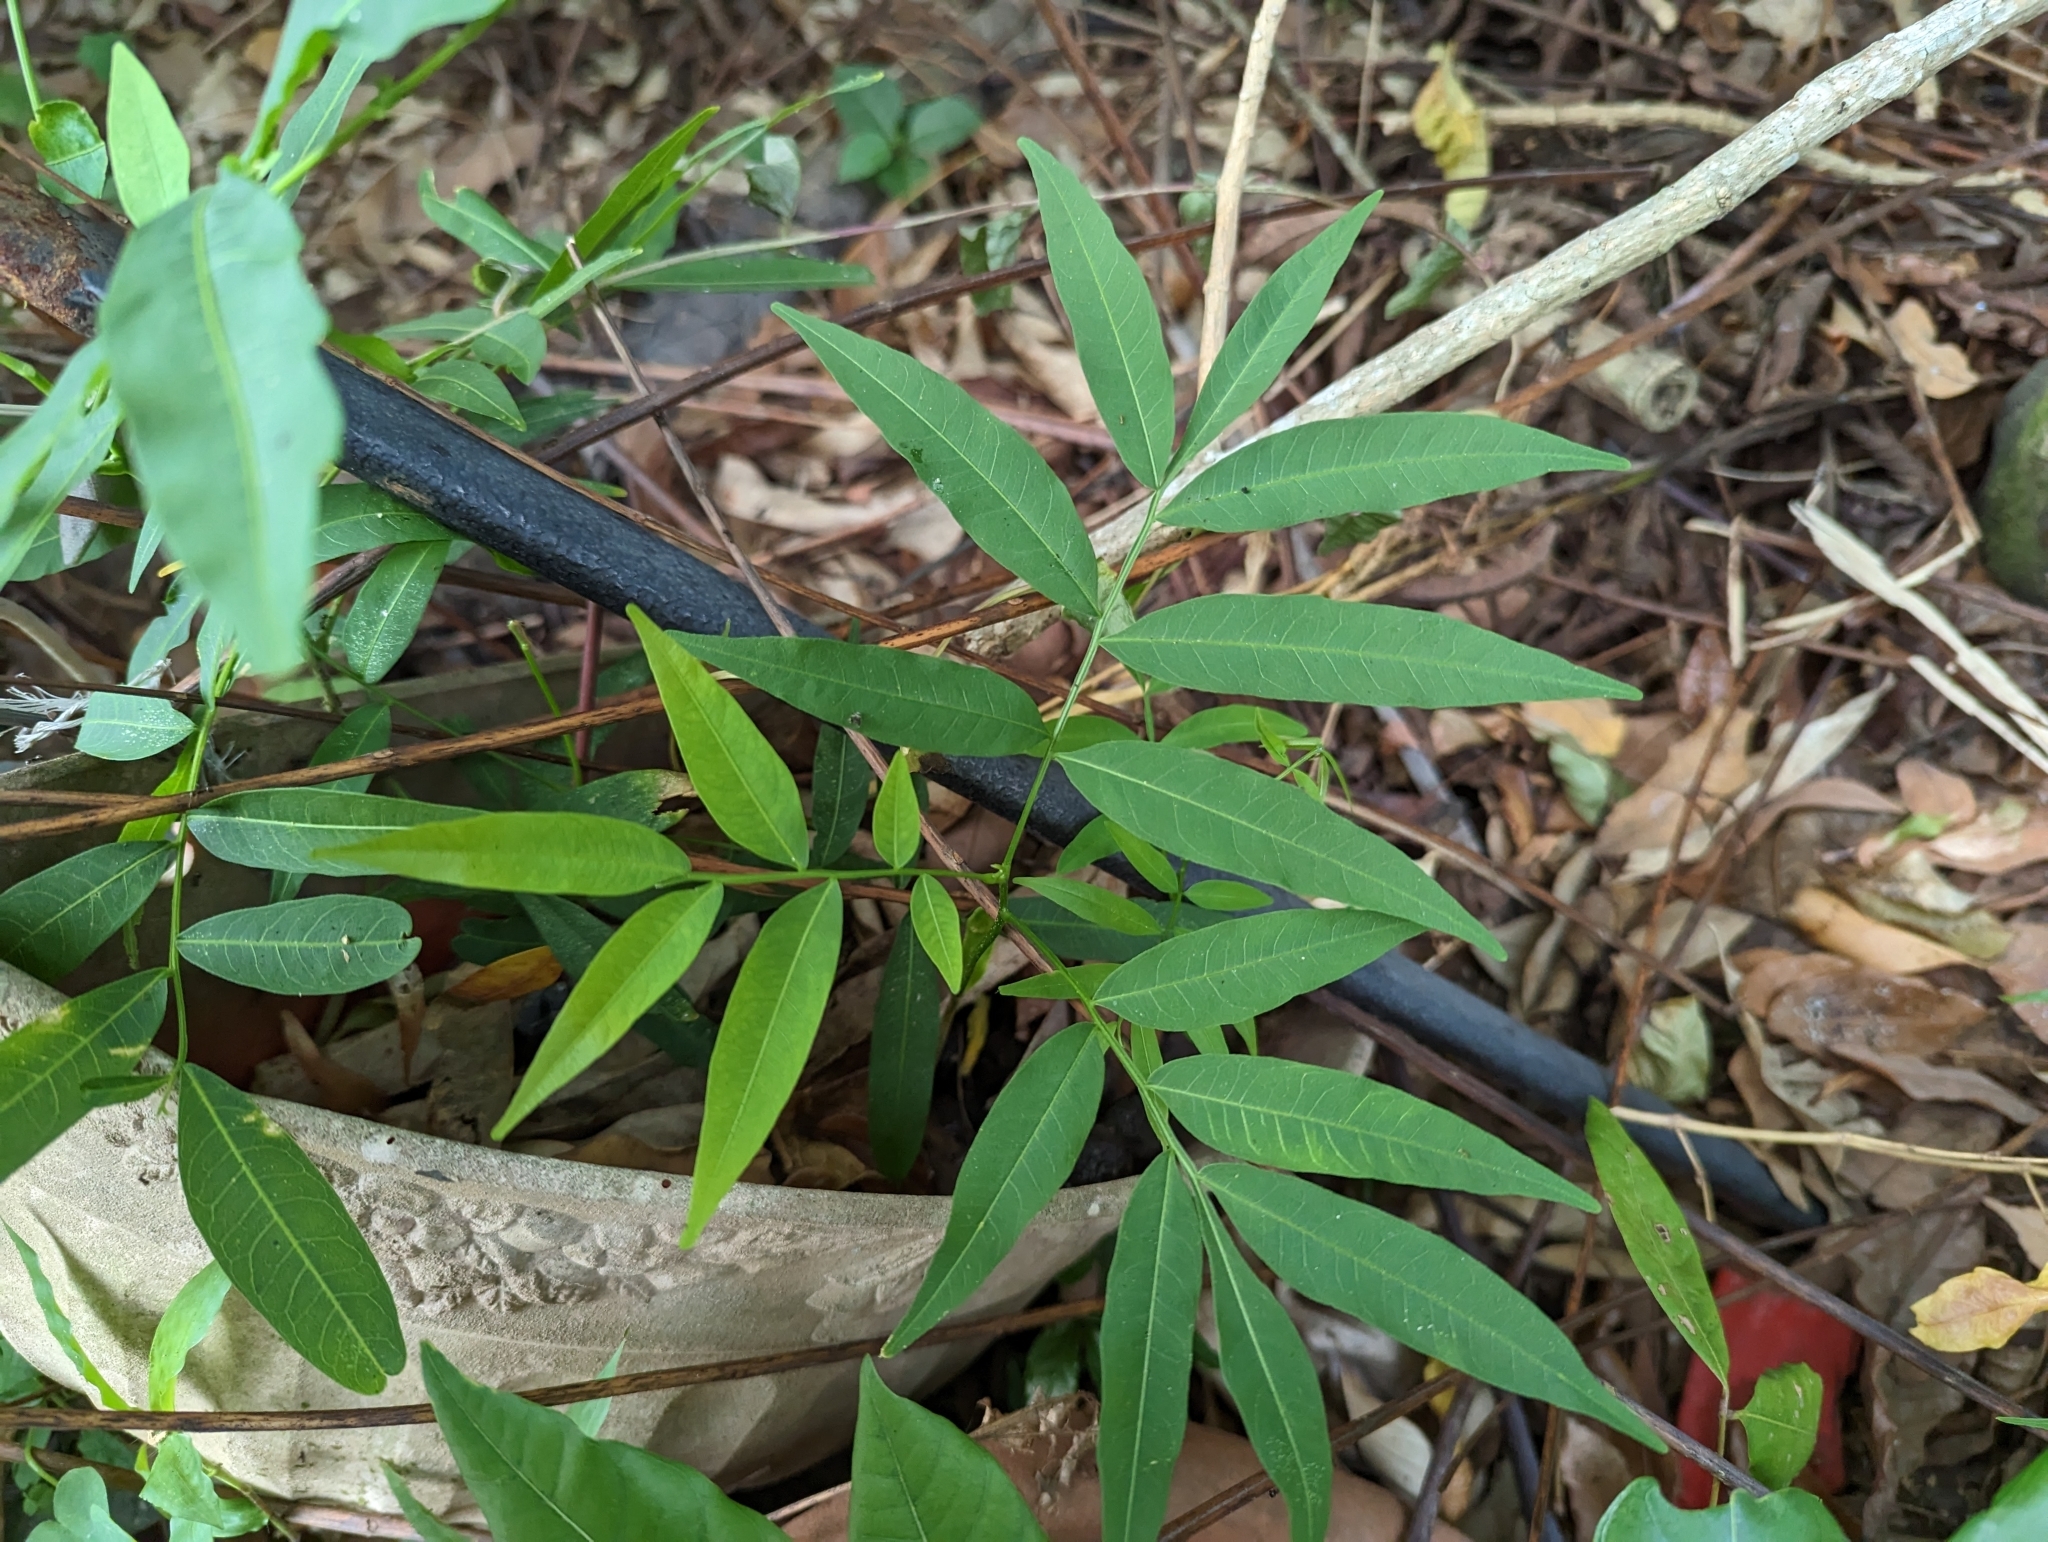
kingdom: Plantae
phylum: Tracheophyta
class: Magnoliopsida
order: Sapindales
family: Sapindaceae
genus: Sapindus
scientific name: Sapindus mukorossi
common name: Chinese soapberry
